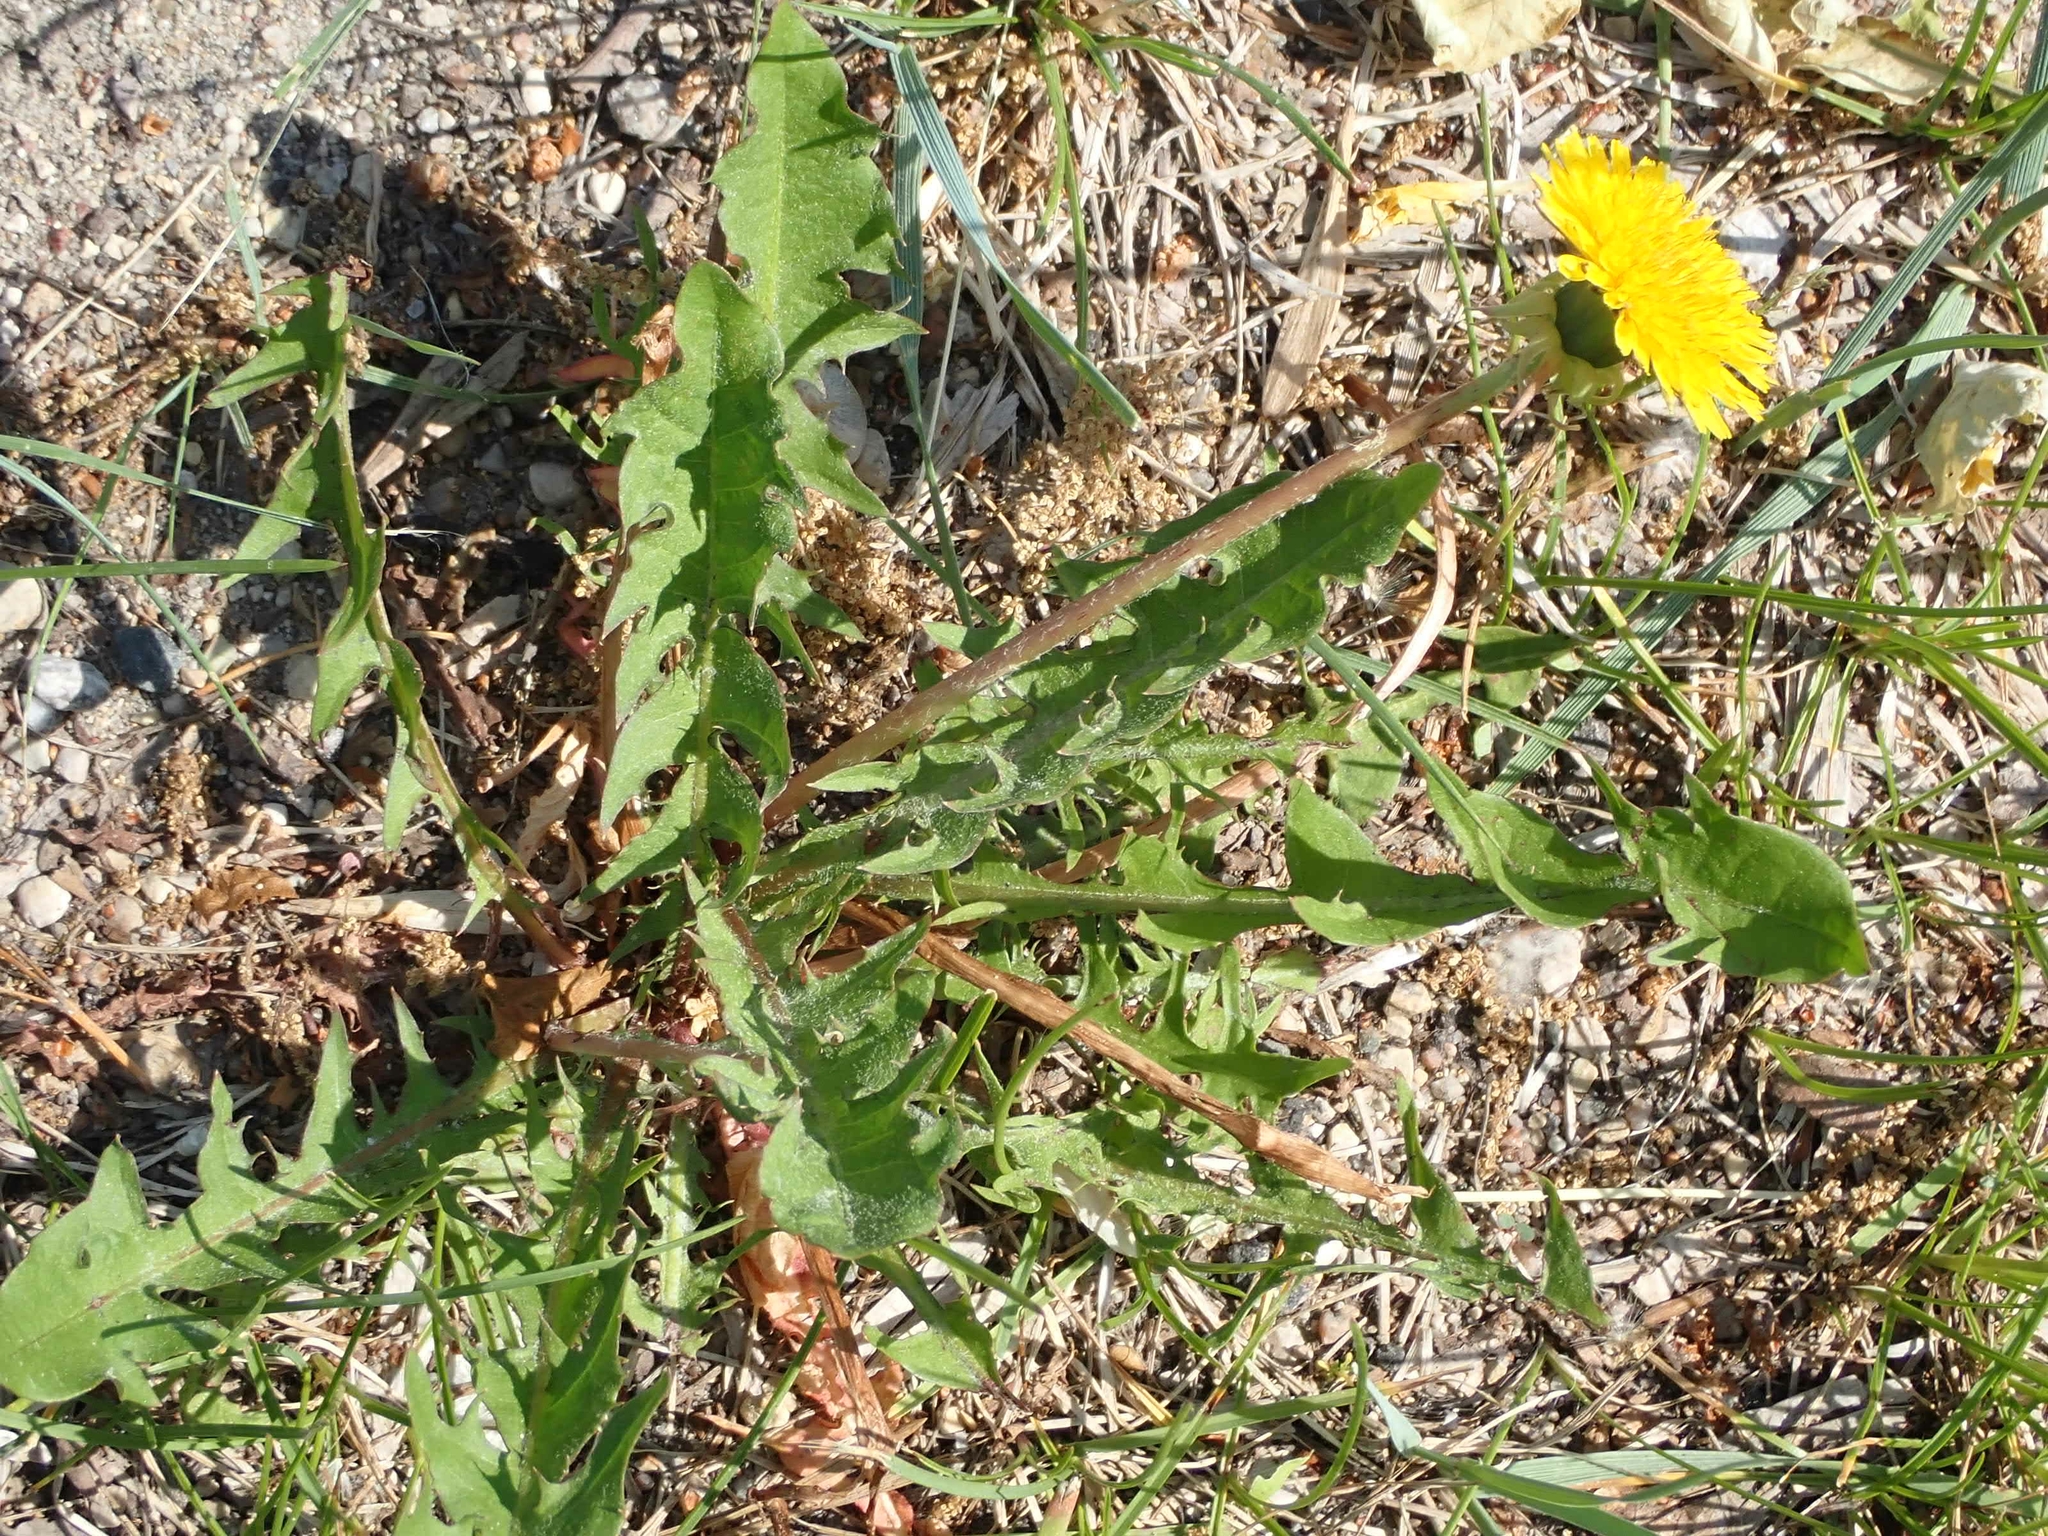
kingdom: Plantae
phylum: Tracheophyta
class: Magnoliopsida
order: Asterales
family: Asteraceae
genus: Taraxacum
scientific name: Taraxacum officinale
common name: Common dandelion
